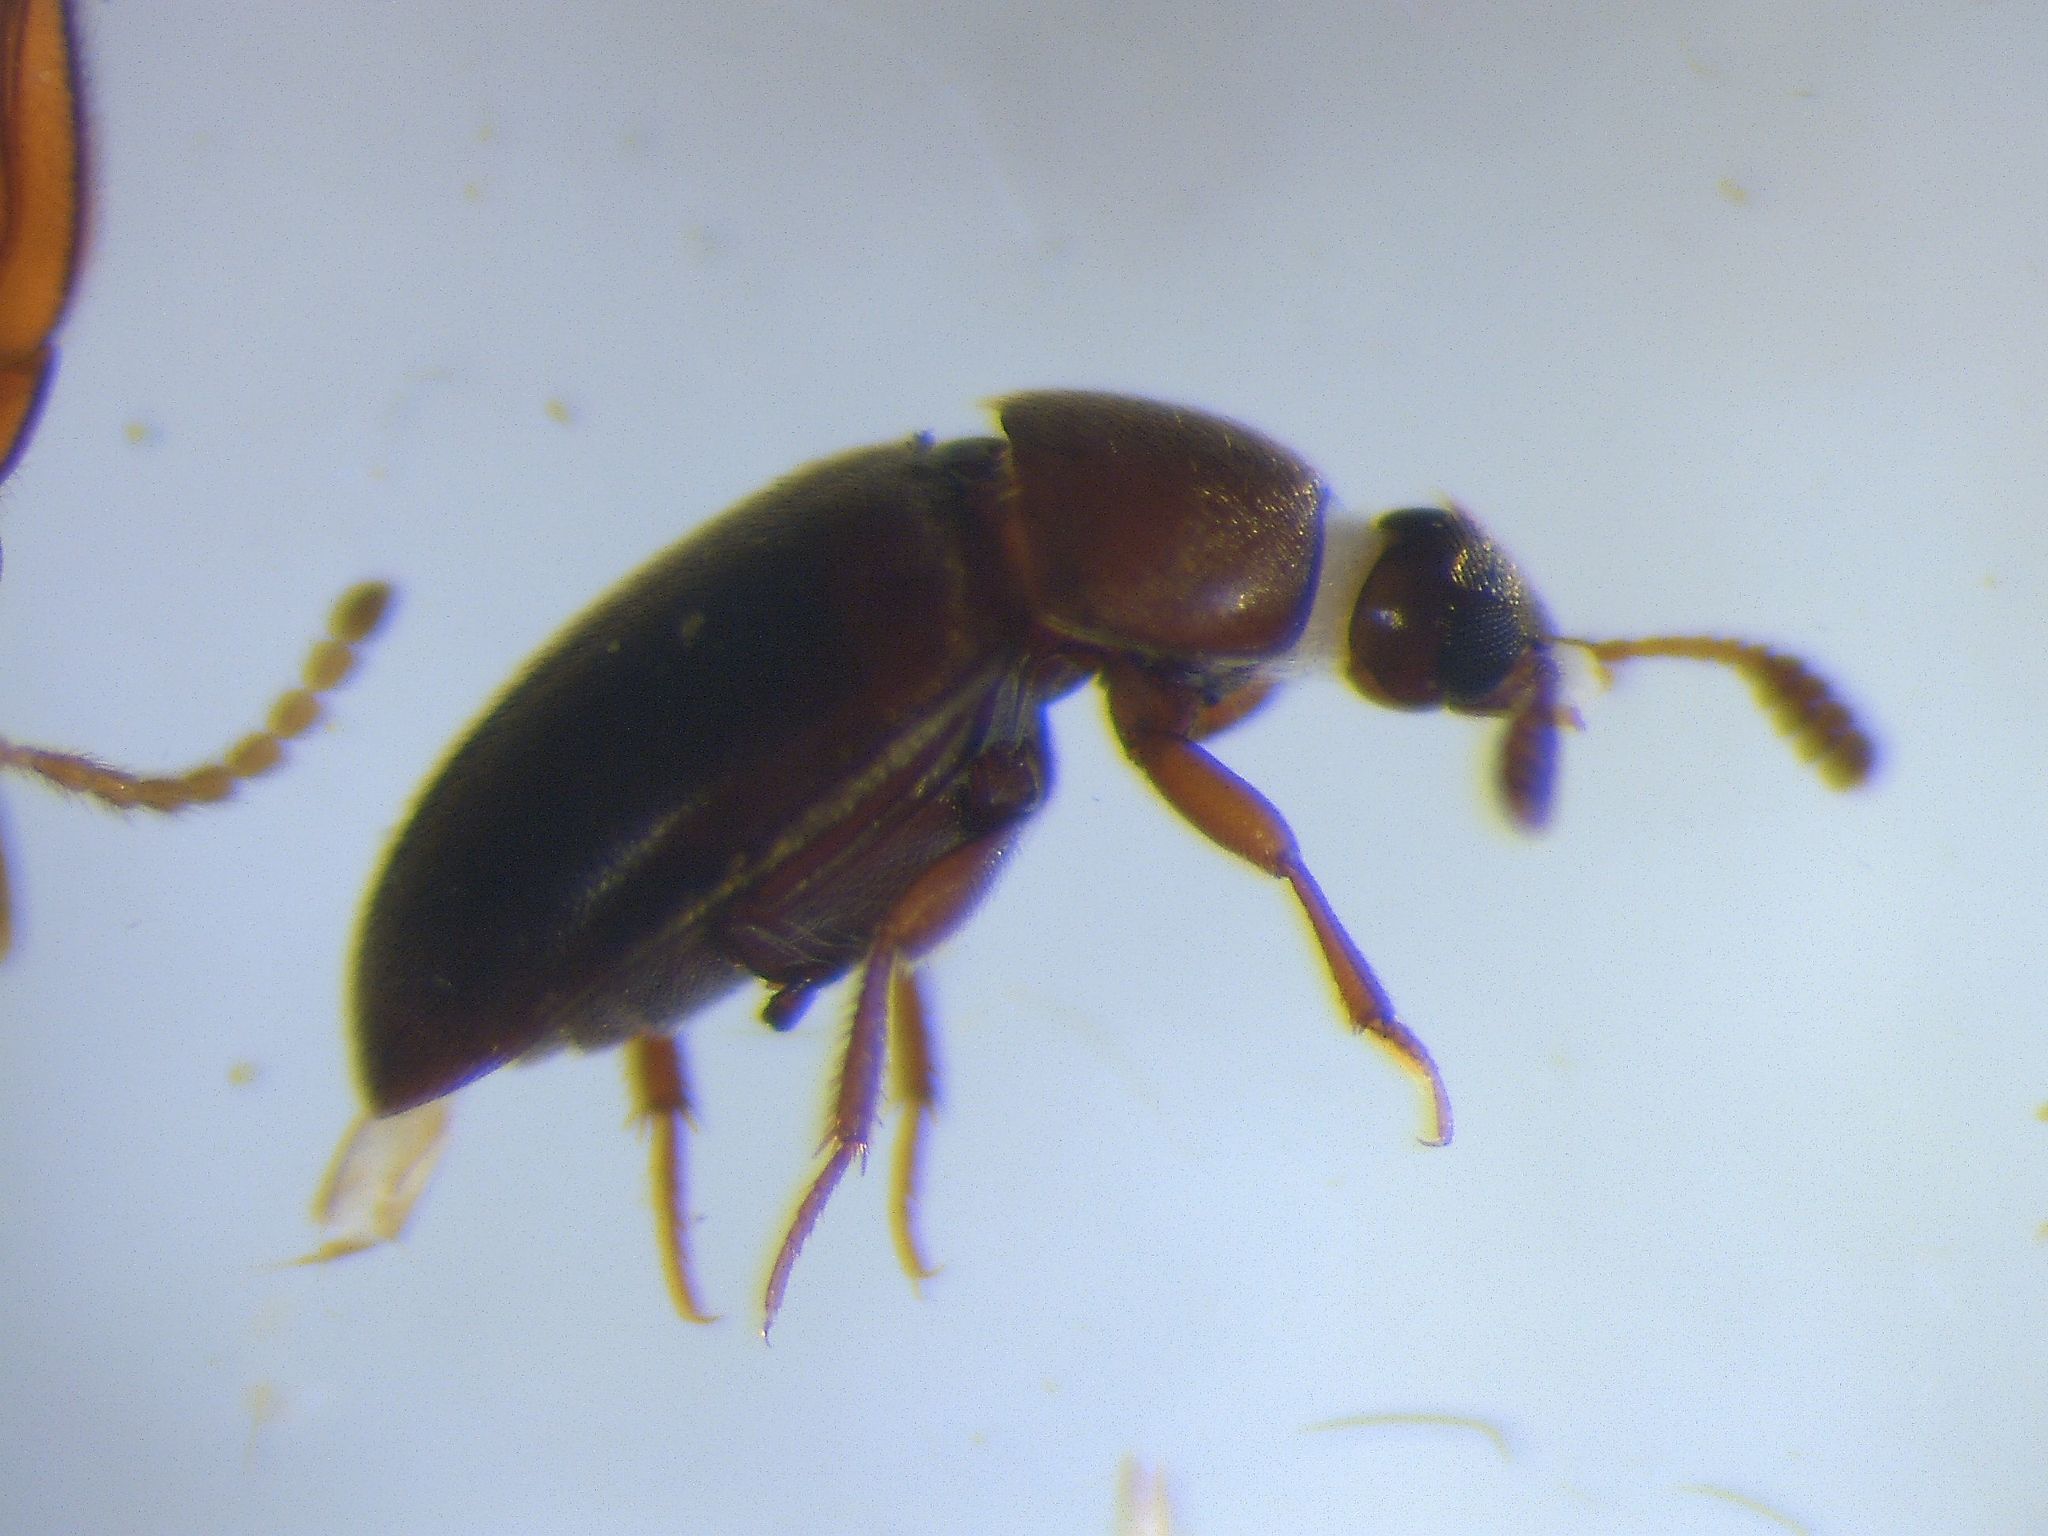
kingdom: Animalia
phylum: Arthropoda
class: Insecta
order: Coleoptera
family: Colonidae
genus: Colon
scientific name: Colon hirtale
